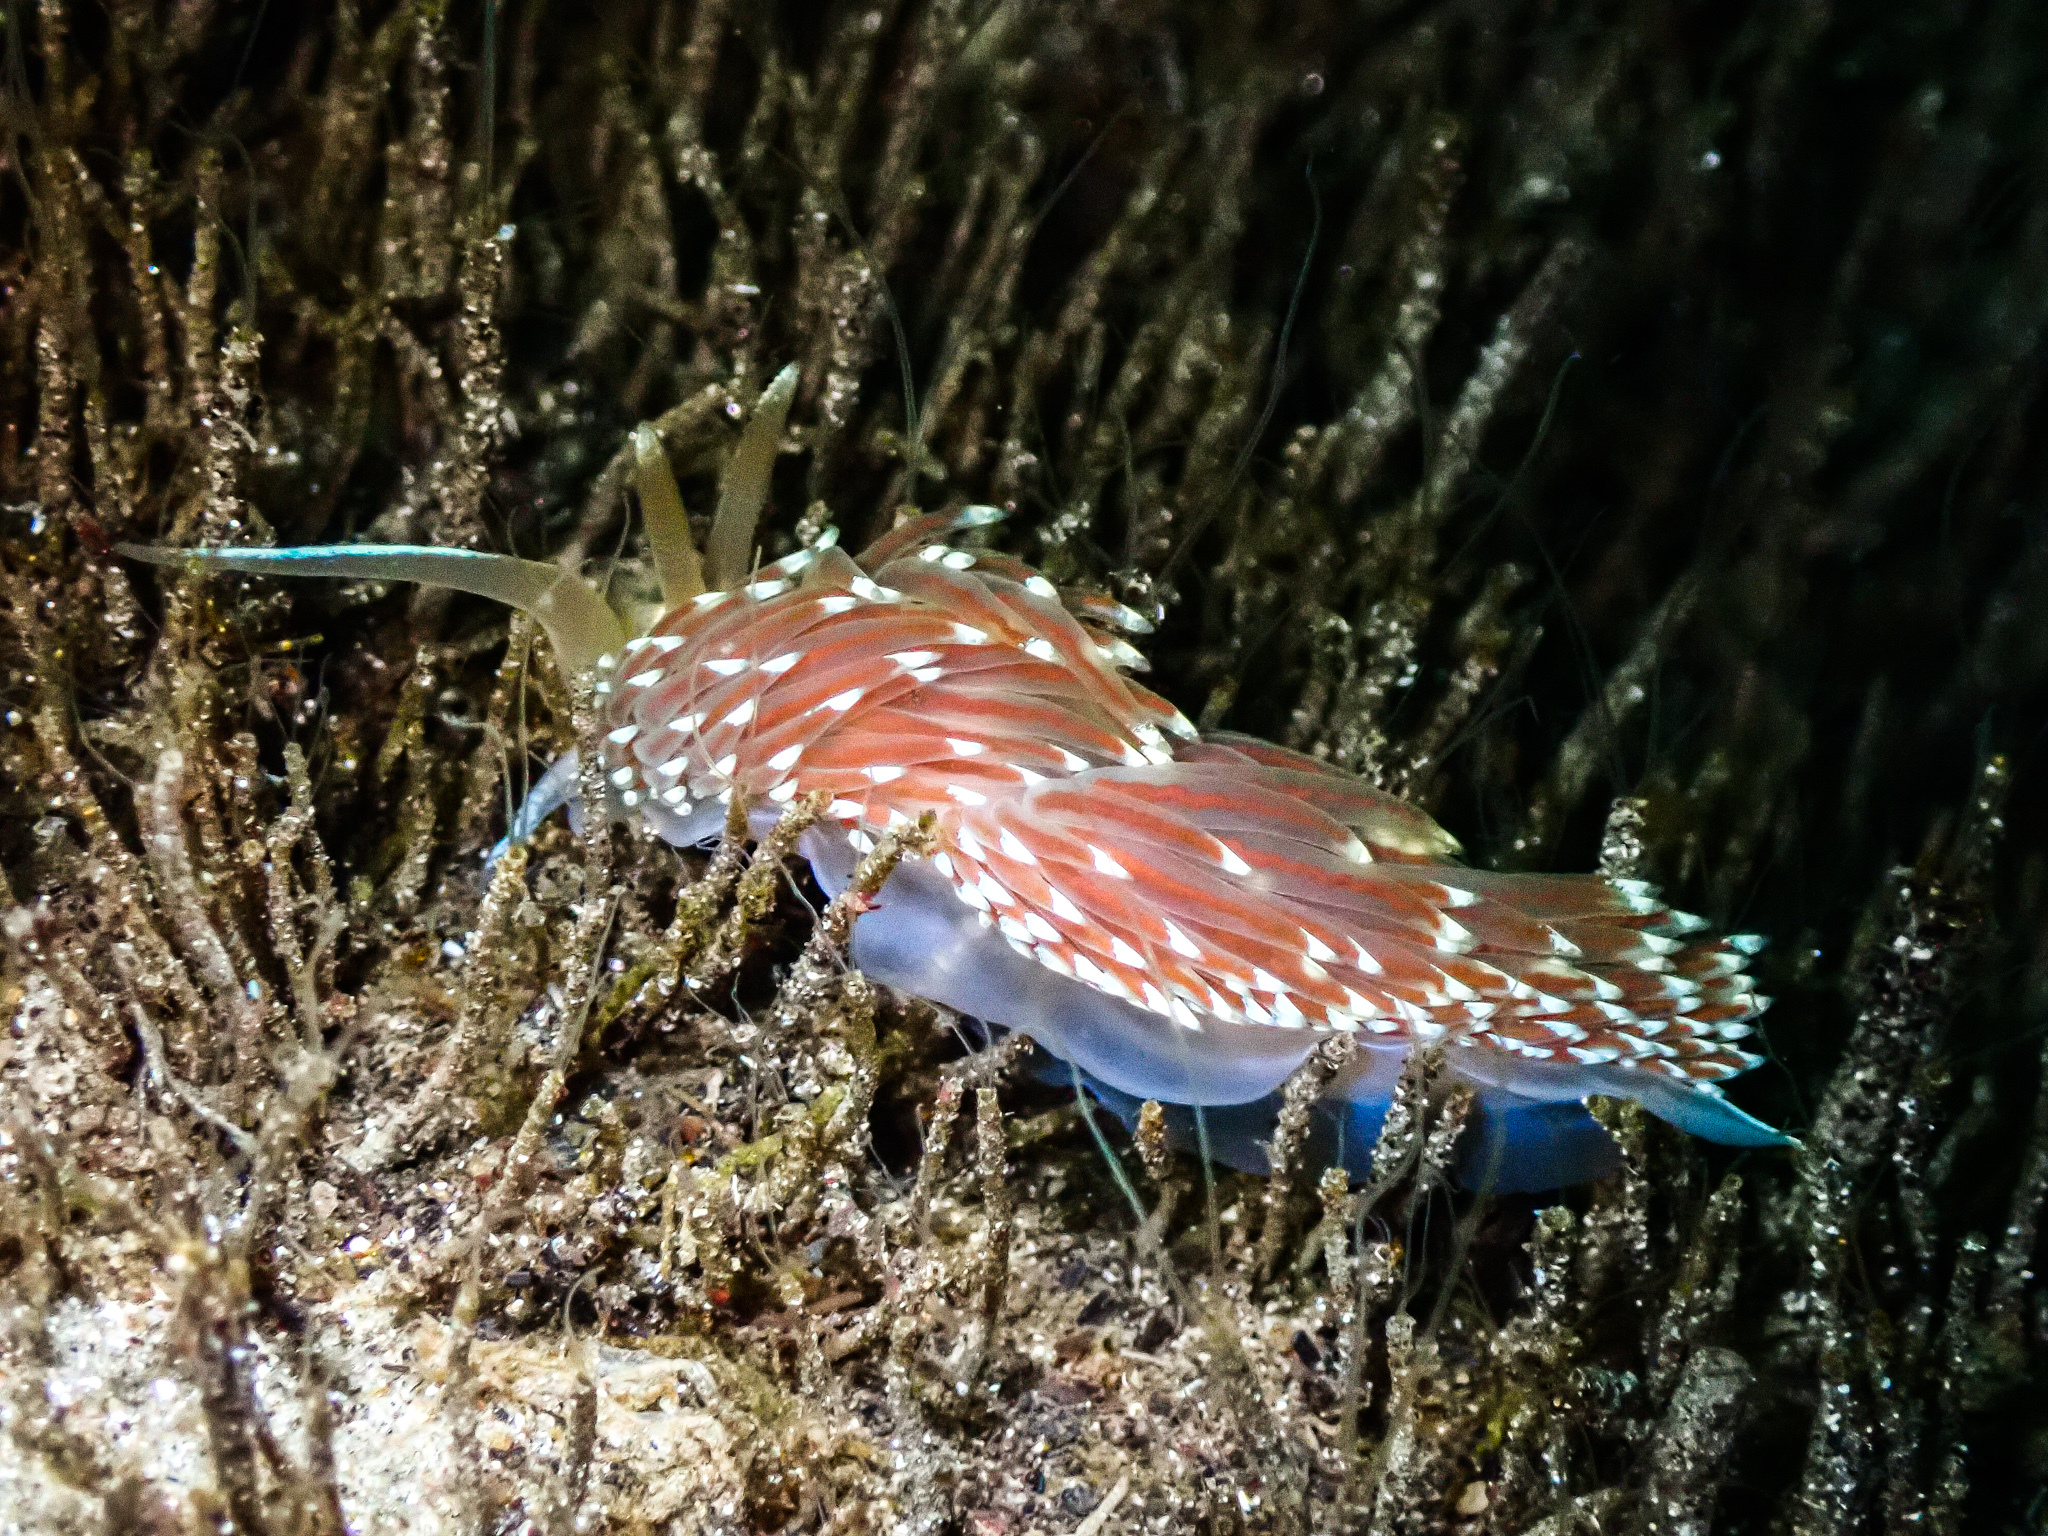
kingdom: Animalia
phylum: Mollusca
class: Gastropoda
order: Nudibranchia
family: Facelinidae
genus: Facelina
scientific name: Facelina bostoniensis
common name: Boston facelina
